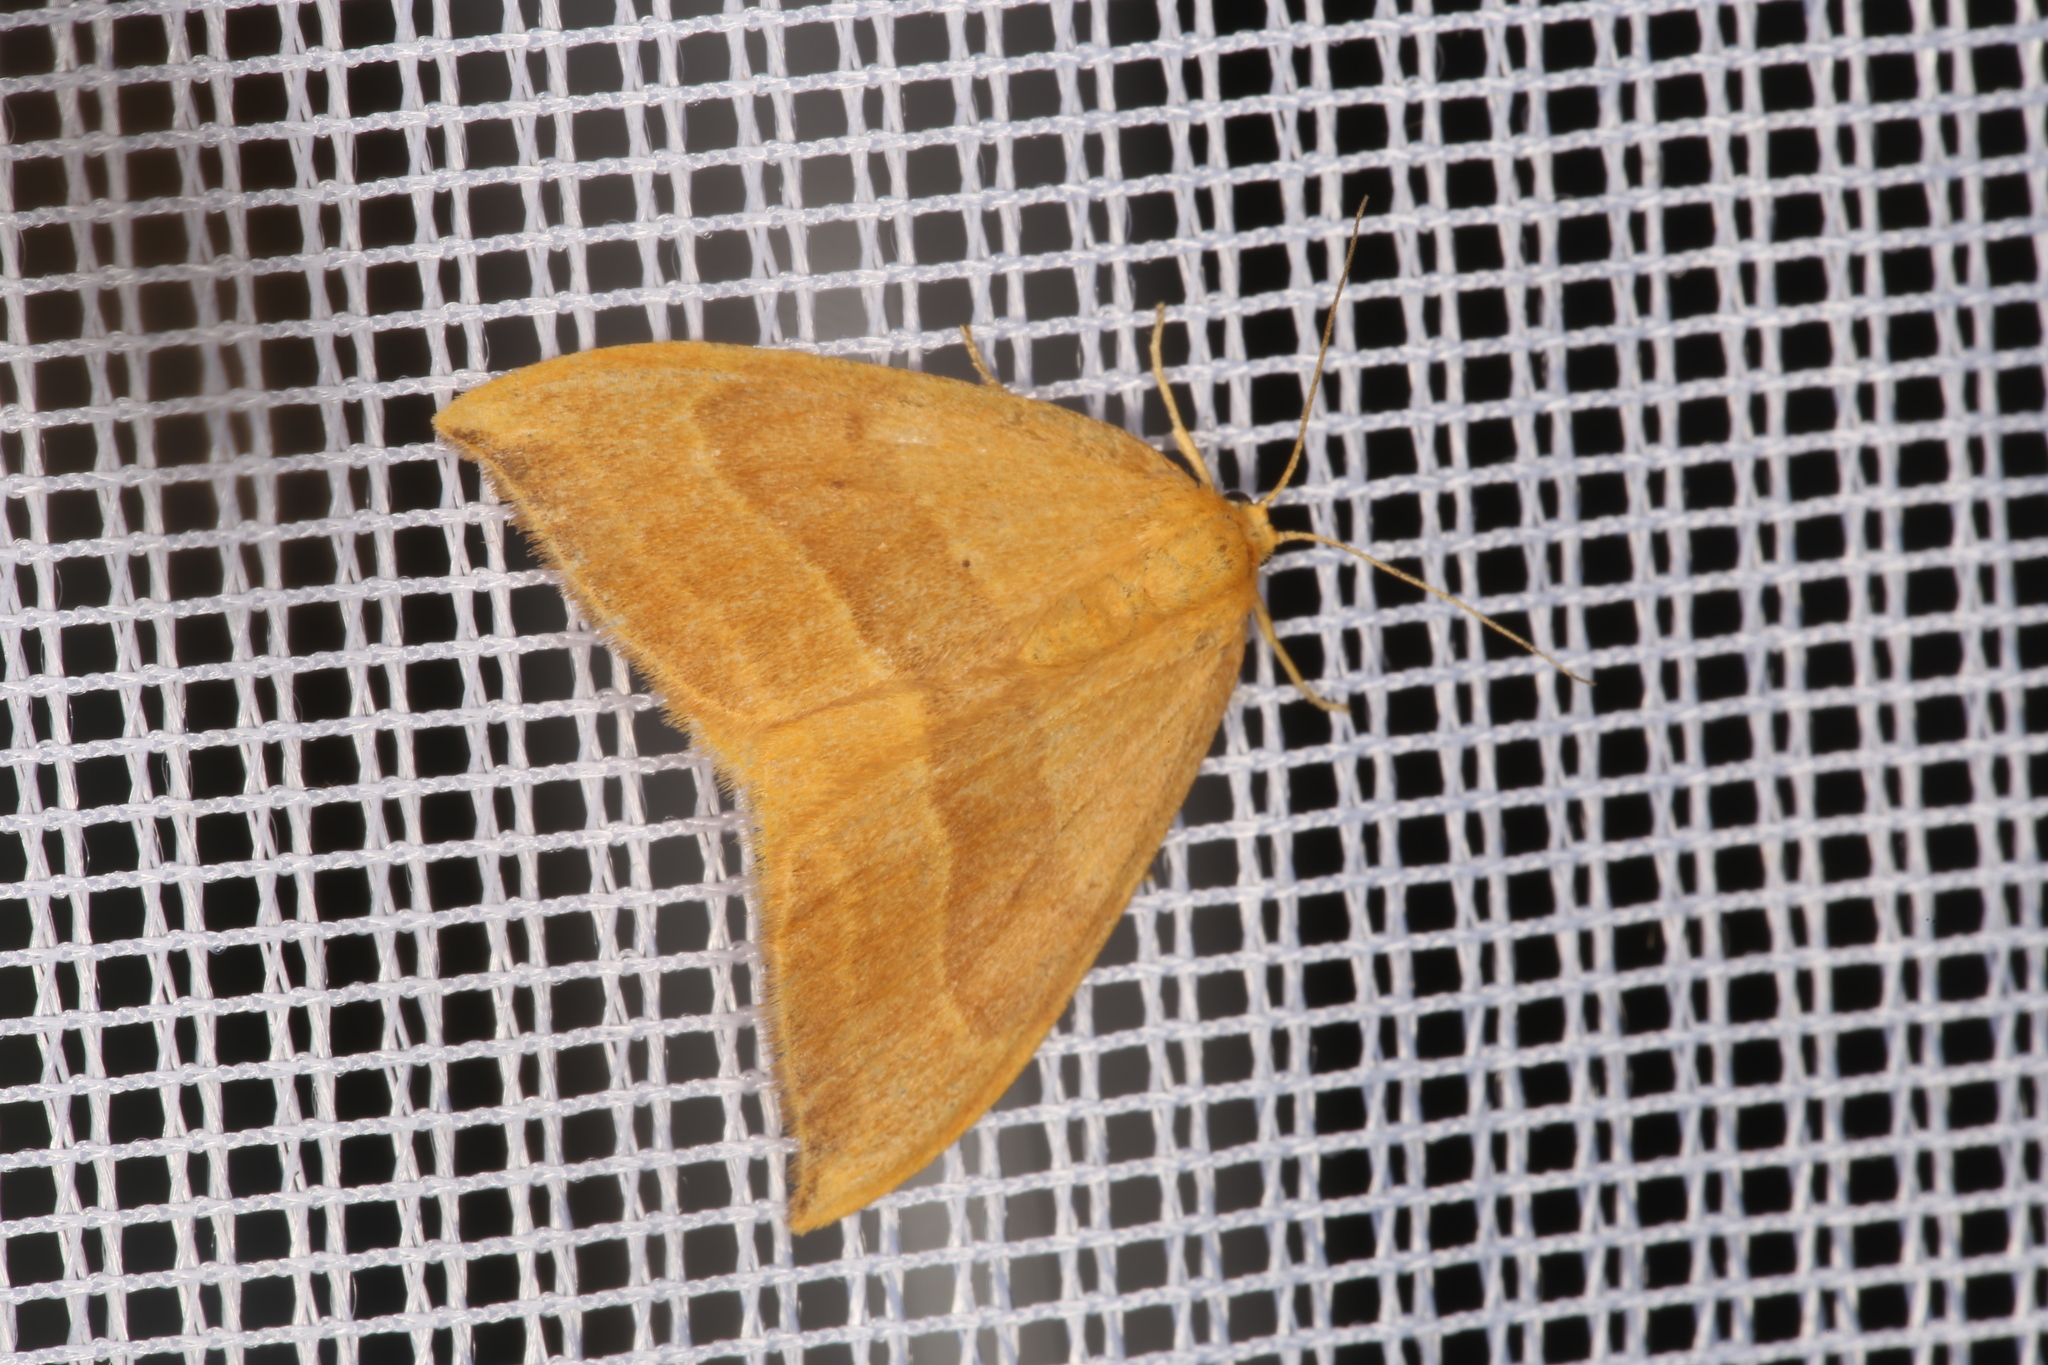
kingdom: Animalia
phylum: Arthropoda
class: Insecta
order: Lepidoptera
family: Drepanidae
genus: Watsonalla
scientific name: Watsonalla cultraria
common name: Barred hook-tip
